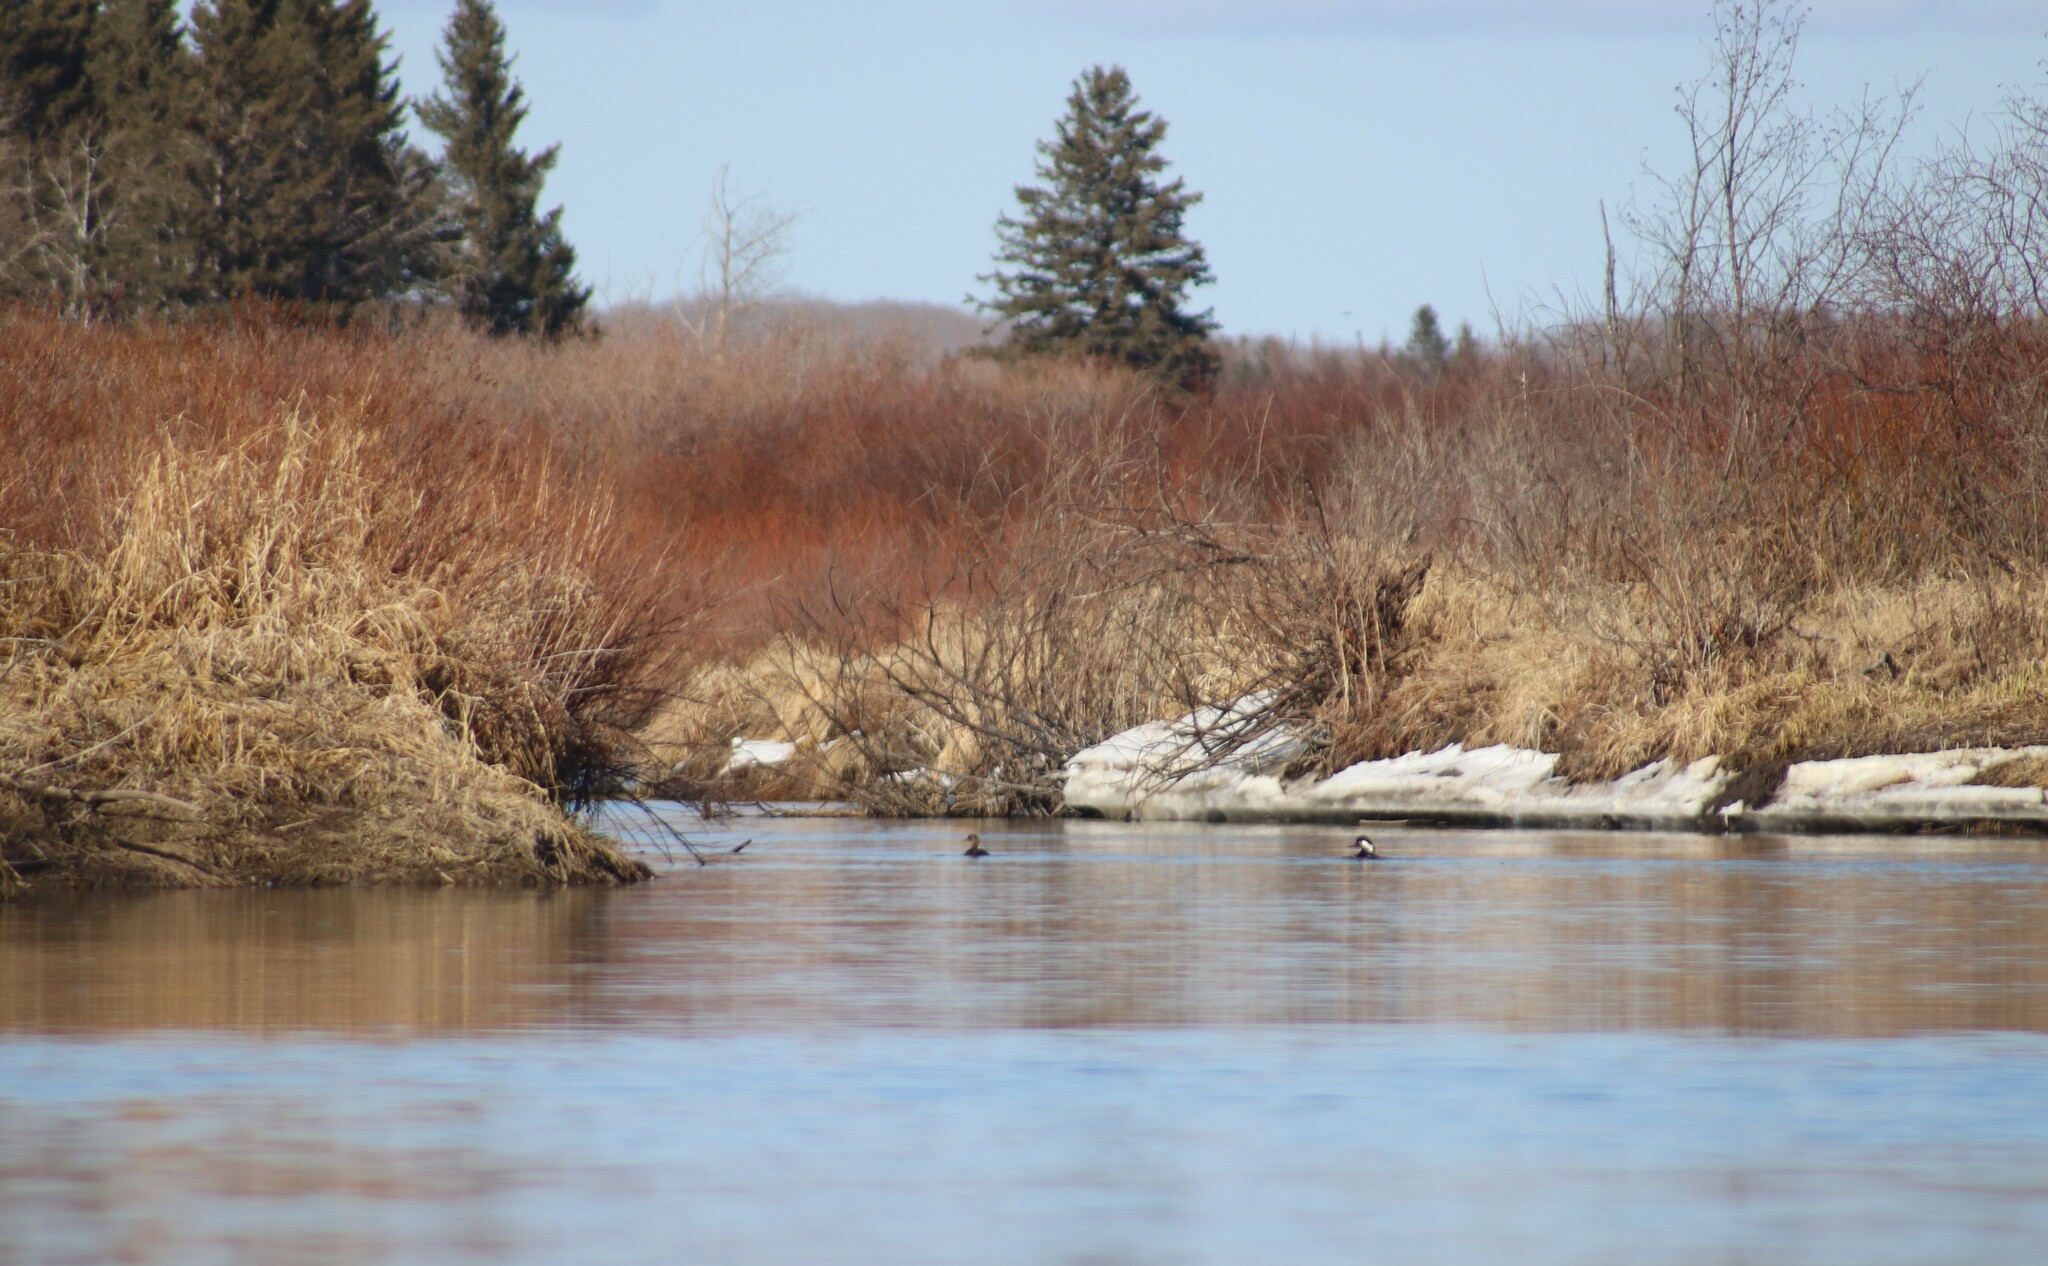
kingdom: Animalia
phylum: Chordata
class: Aves
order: Anseriformes
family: Anatidae
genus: Lophodytes
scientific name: Lophodytes cucullatus
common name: Hooded merganser
